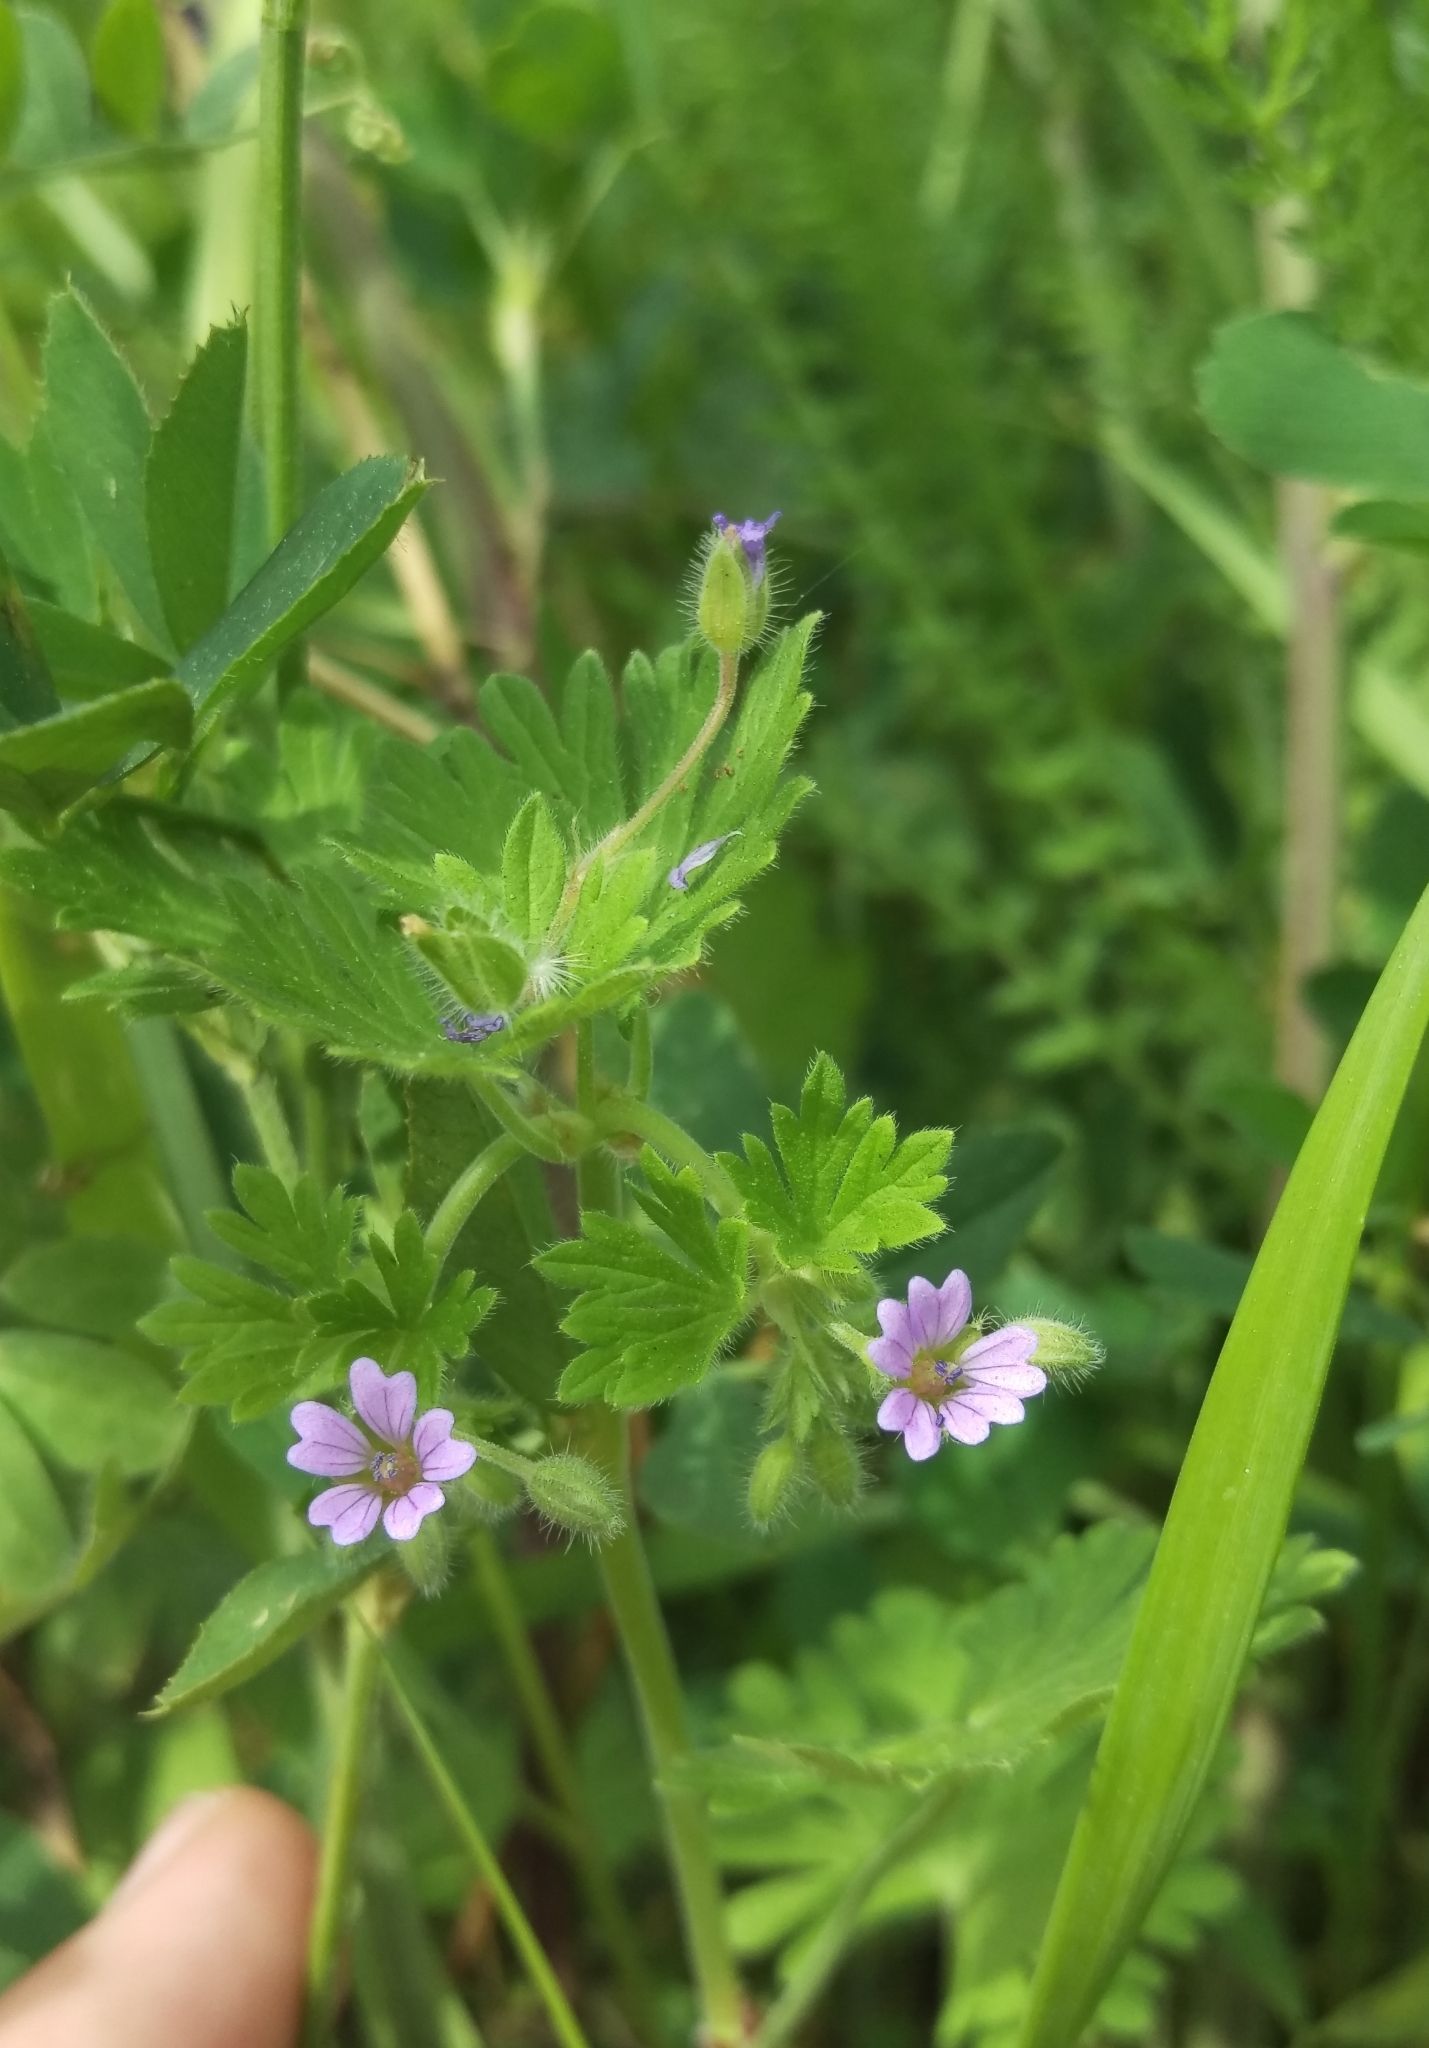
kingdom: Plantae
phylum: Tracheophyta
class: Magnoliopsida
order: Geraniales
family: Geraniaceae
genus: Geranium
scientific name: Geranium pusillum
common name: Small geranium
